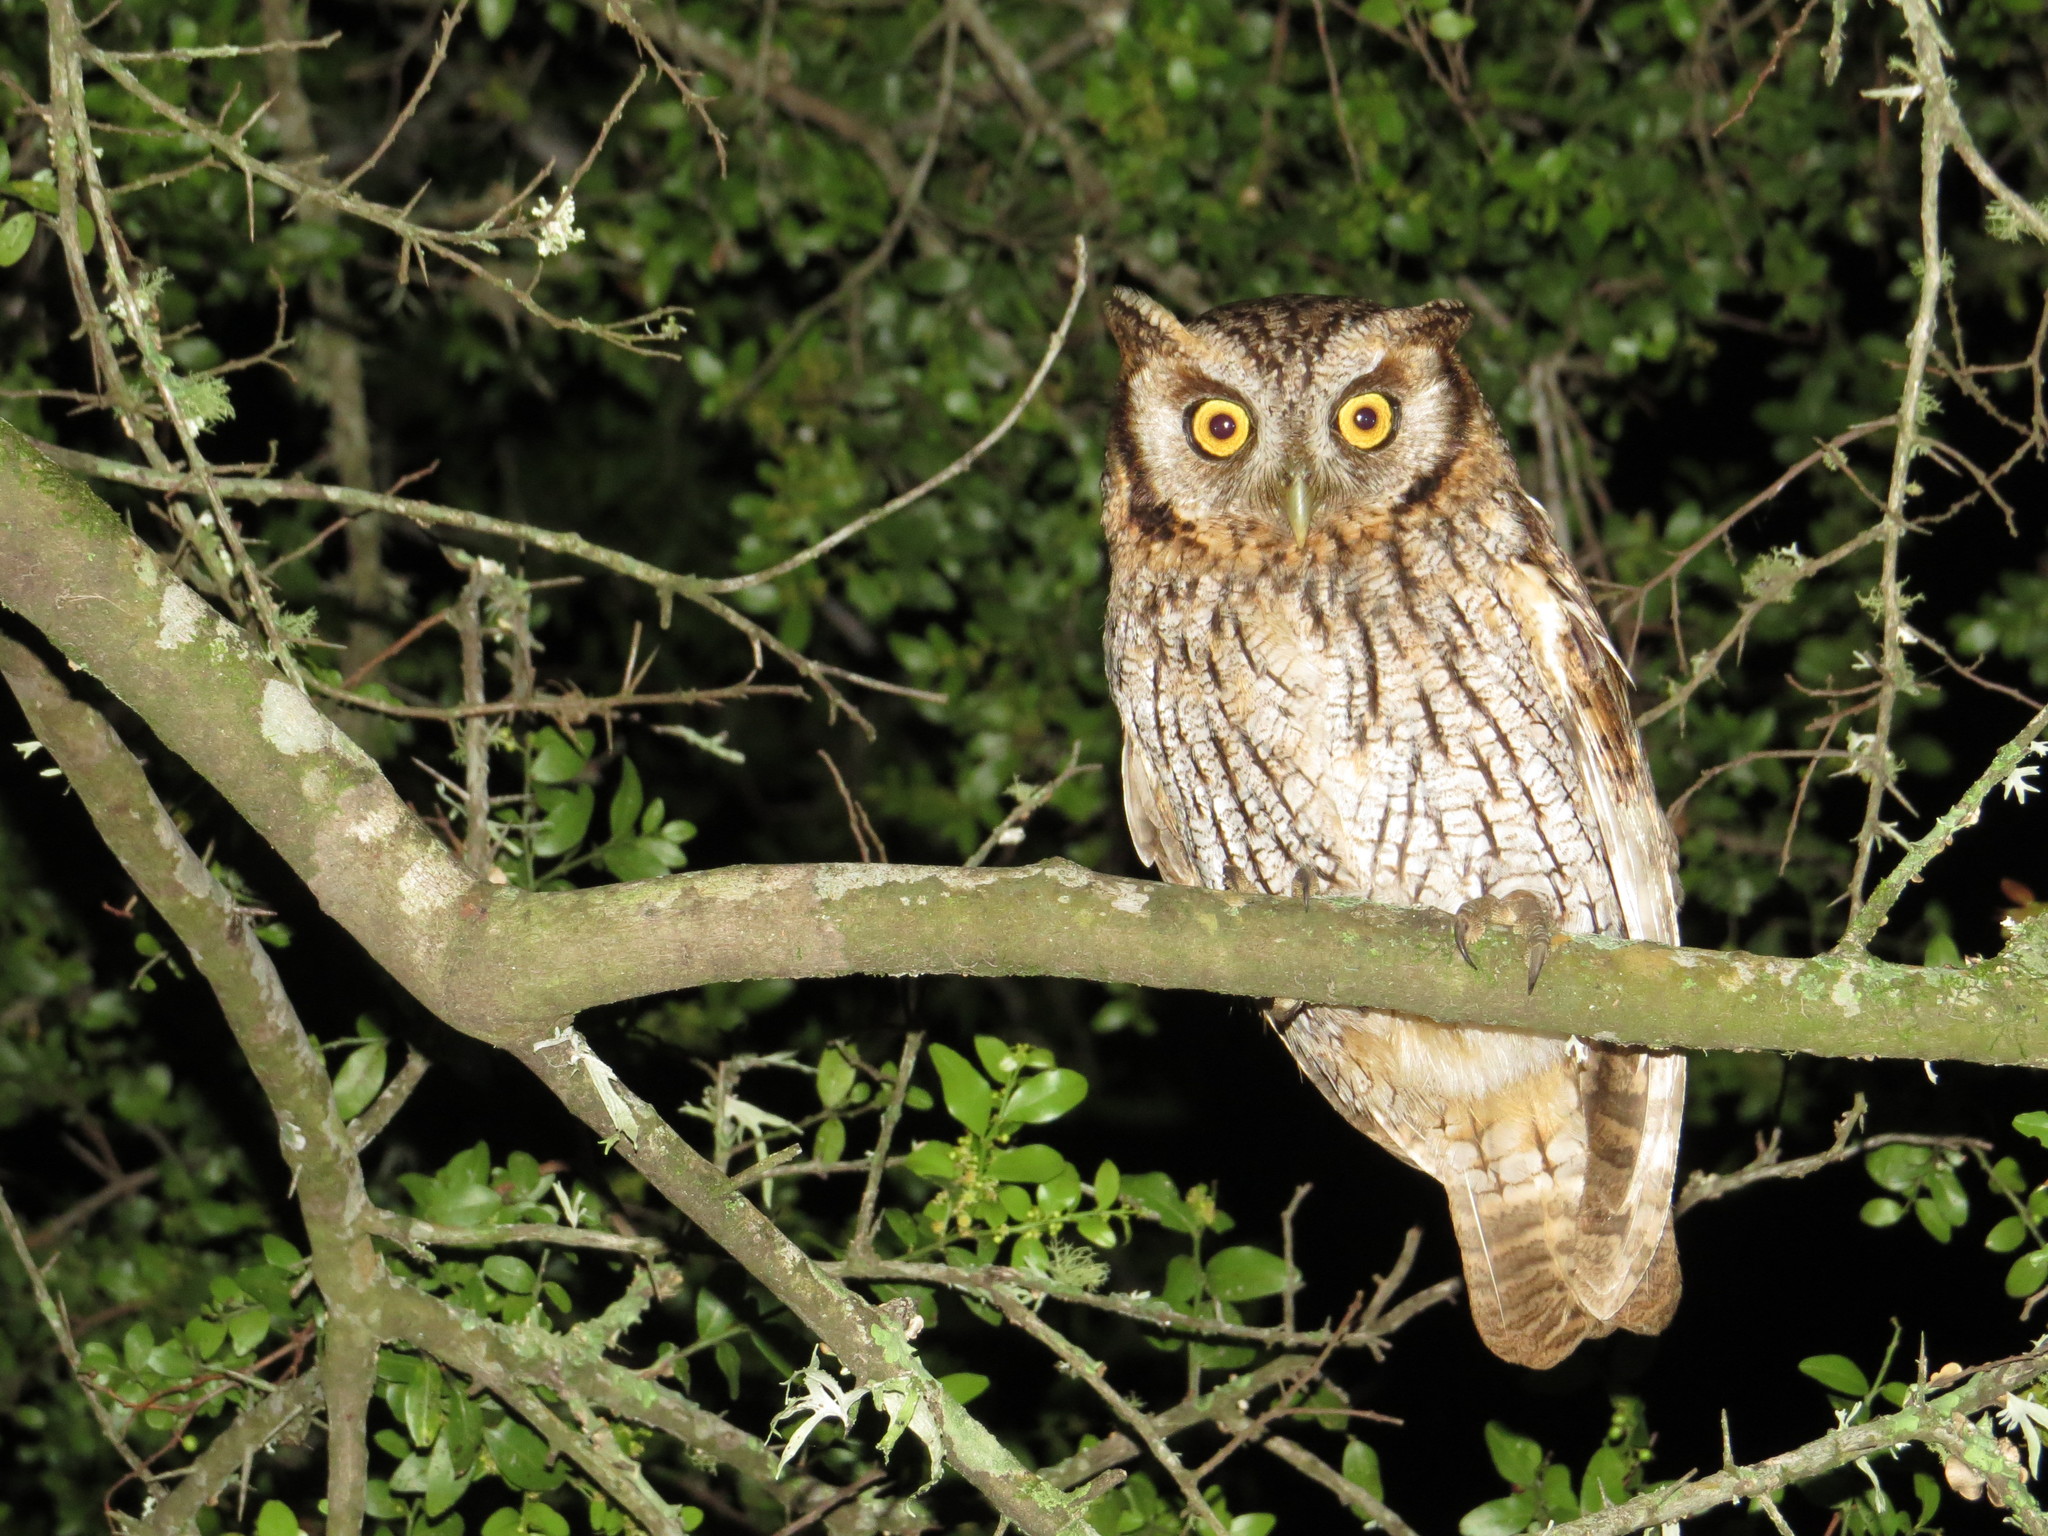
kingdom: Animalia
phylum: Chordata
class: Aves
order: Strigiformes
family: Strigidae
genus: Megascops
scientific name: Megascops choliba
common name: Tropical screech-owl
